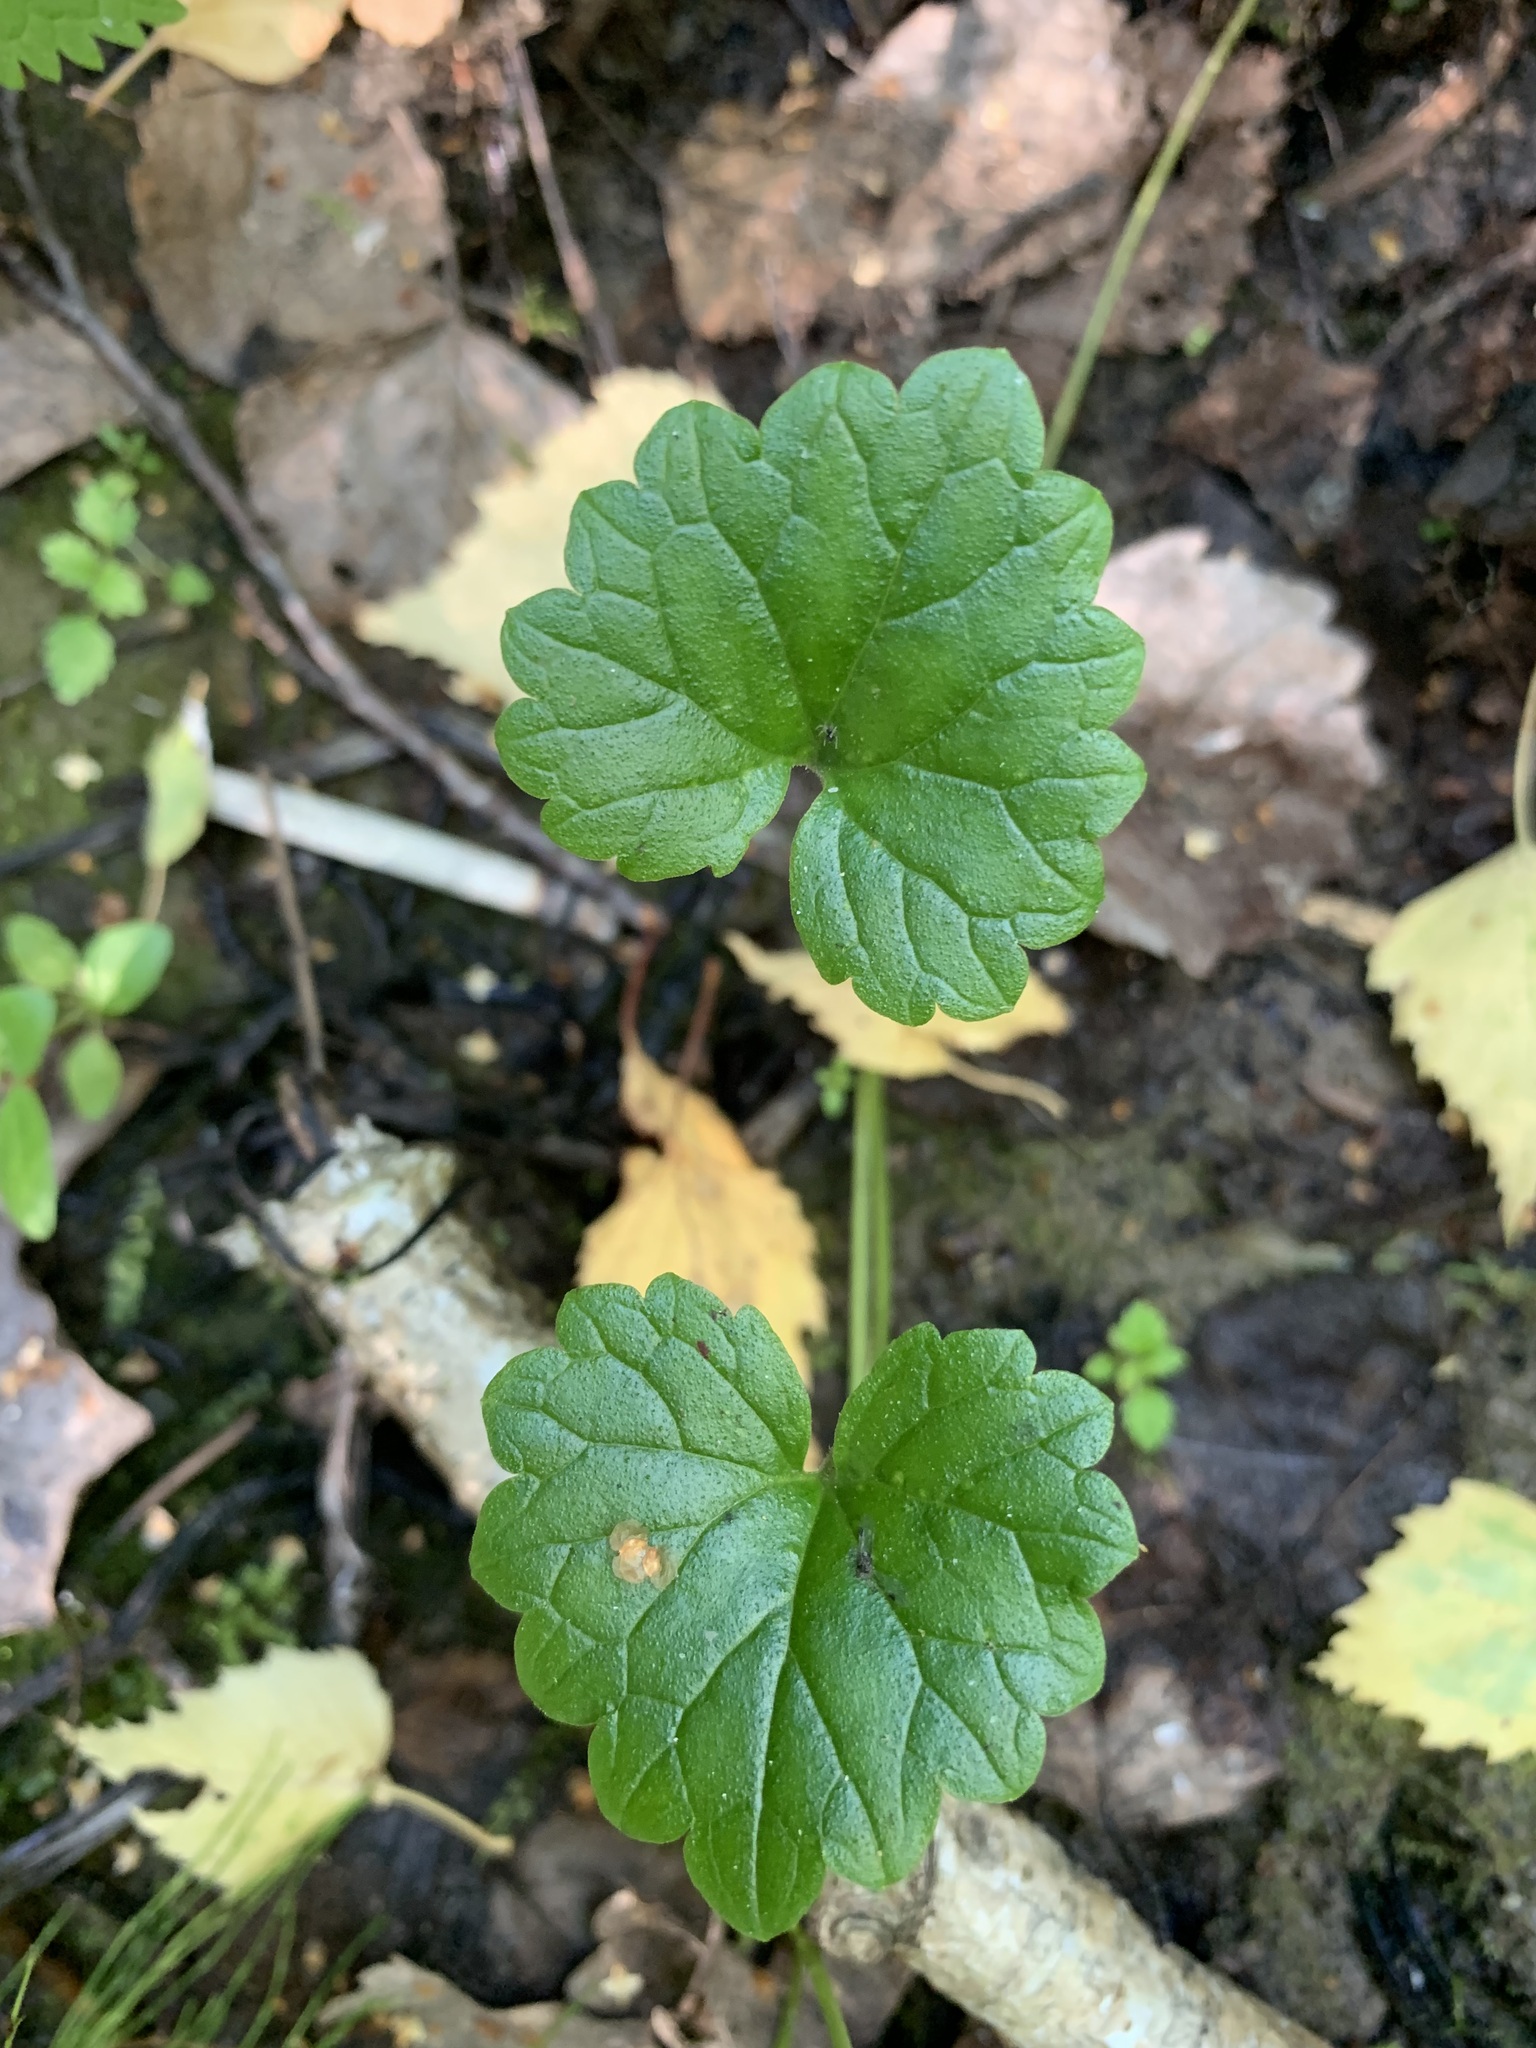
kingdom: Plantae
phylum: Tracheophyta
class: Magnoliopsida
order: Lamiales
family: Lamiaceae
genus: Glechoma
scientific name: Glechoma hederacea
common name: Ground ivy
